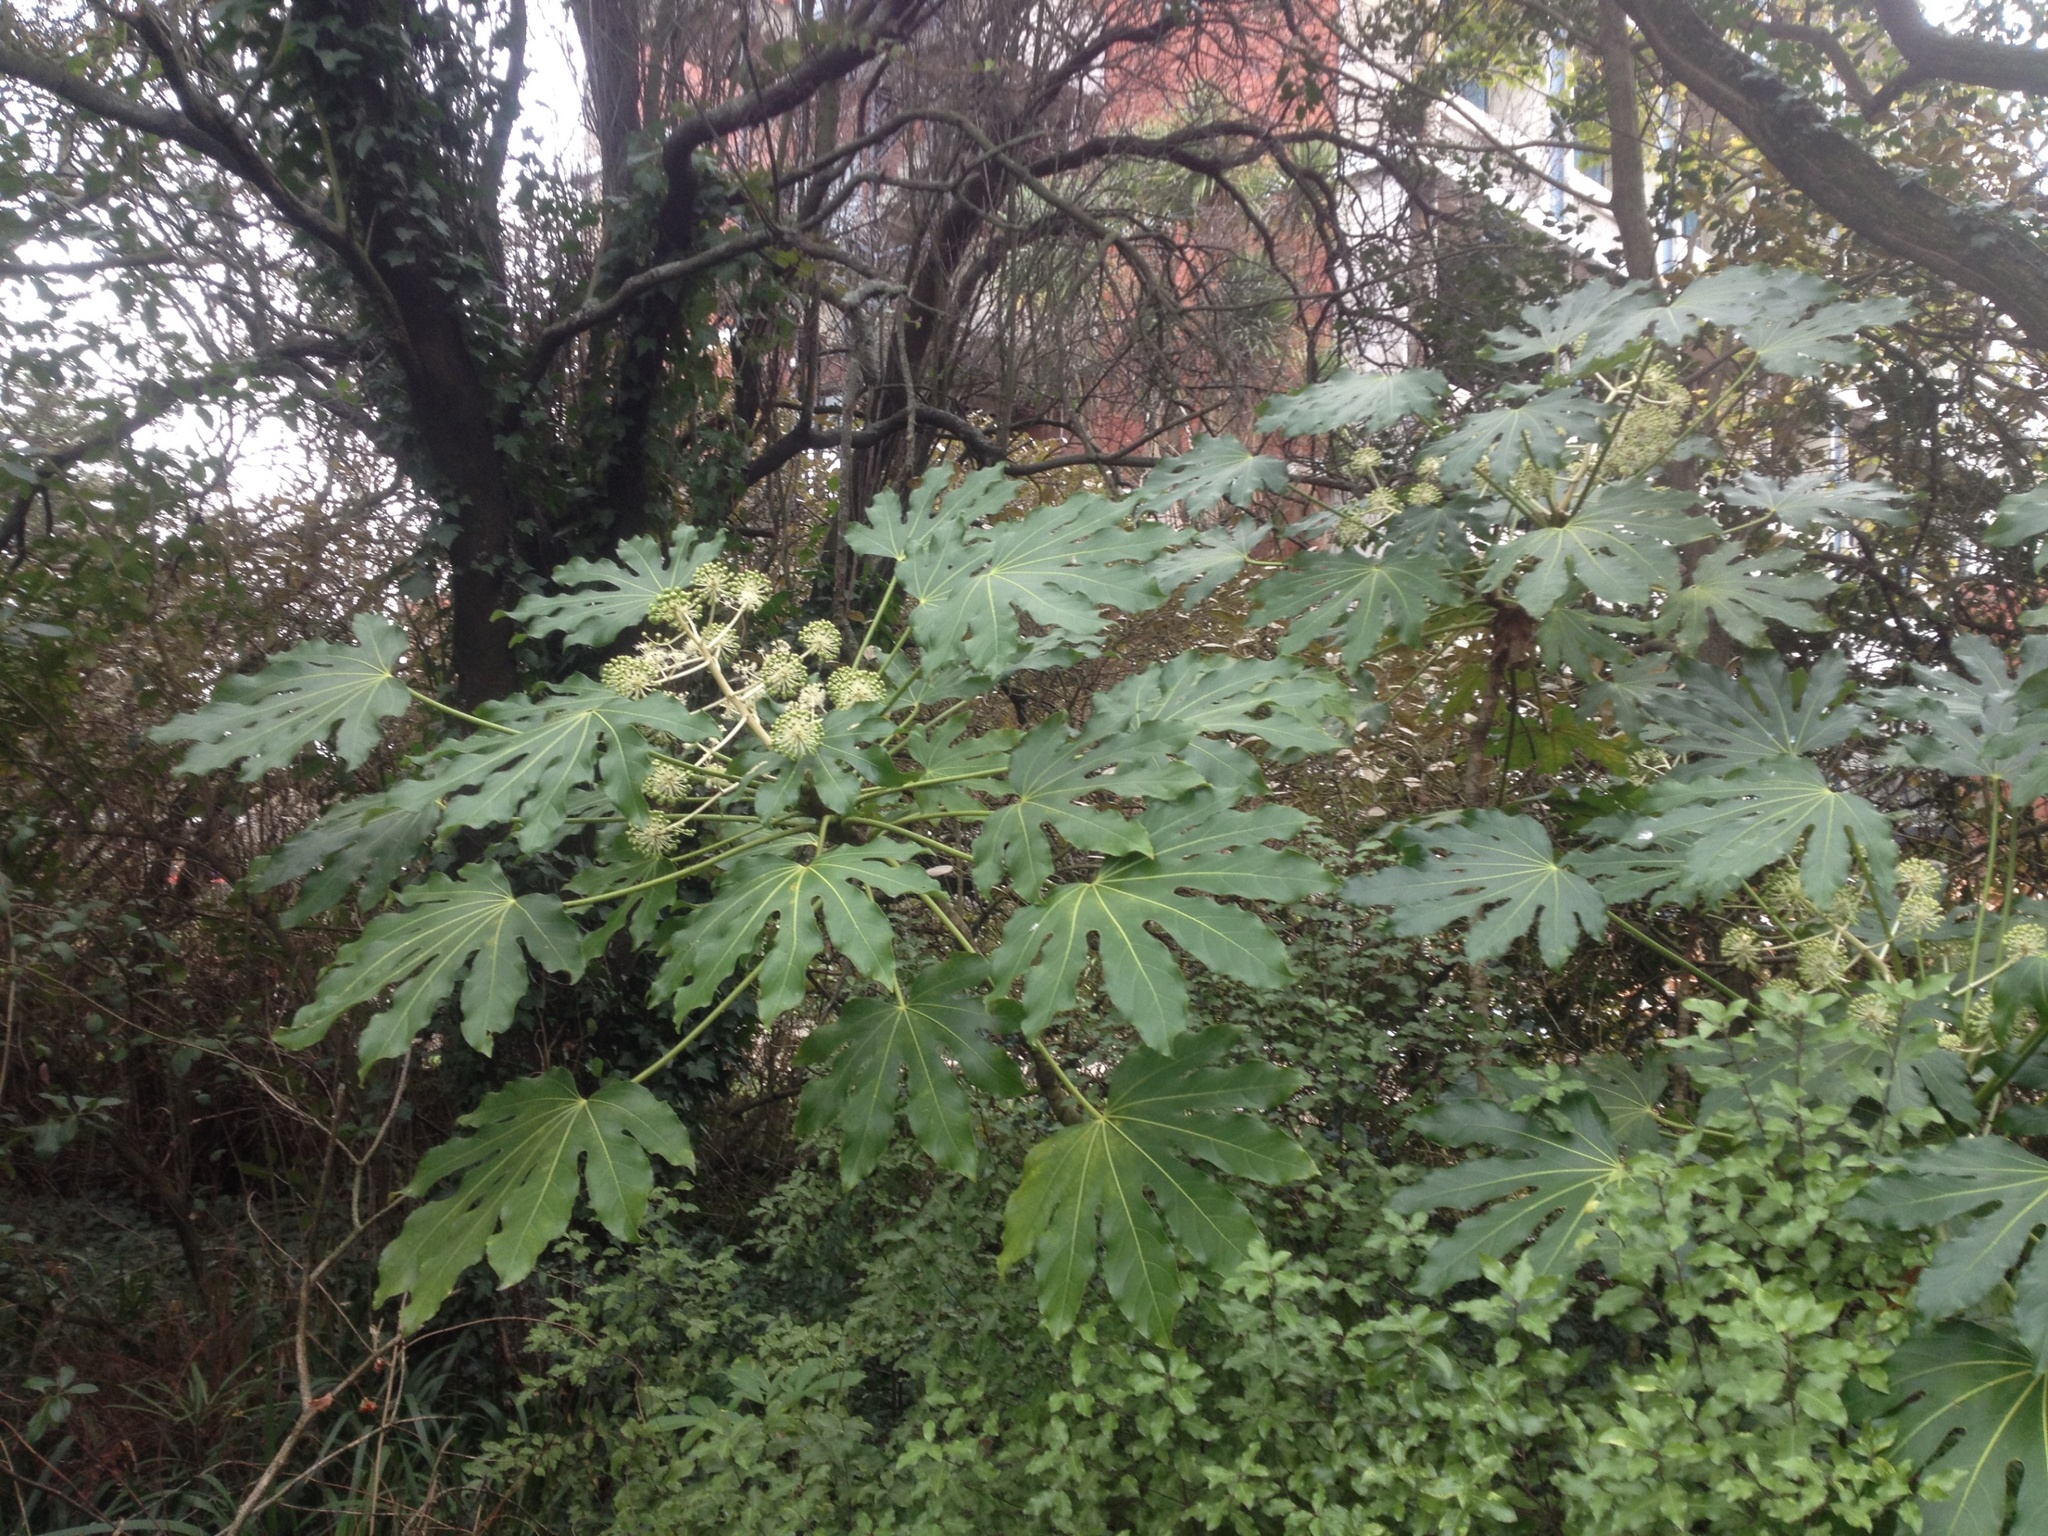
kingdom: Plantae
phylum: Tracheophyta
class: Magnoliopsida
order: Apiales
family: Araliaceae
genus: Fatsia
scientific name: Fatsia japonica
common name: Fatsia
